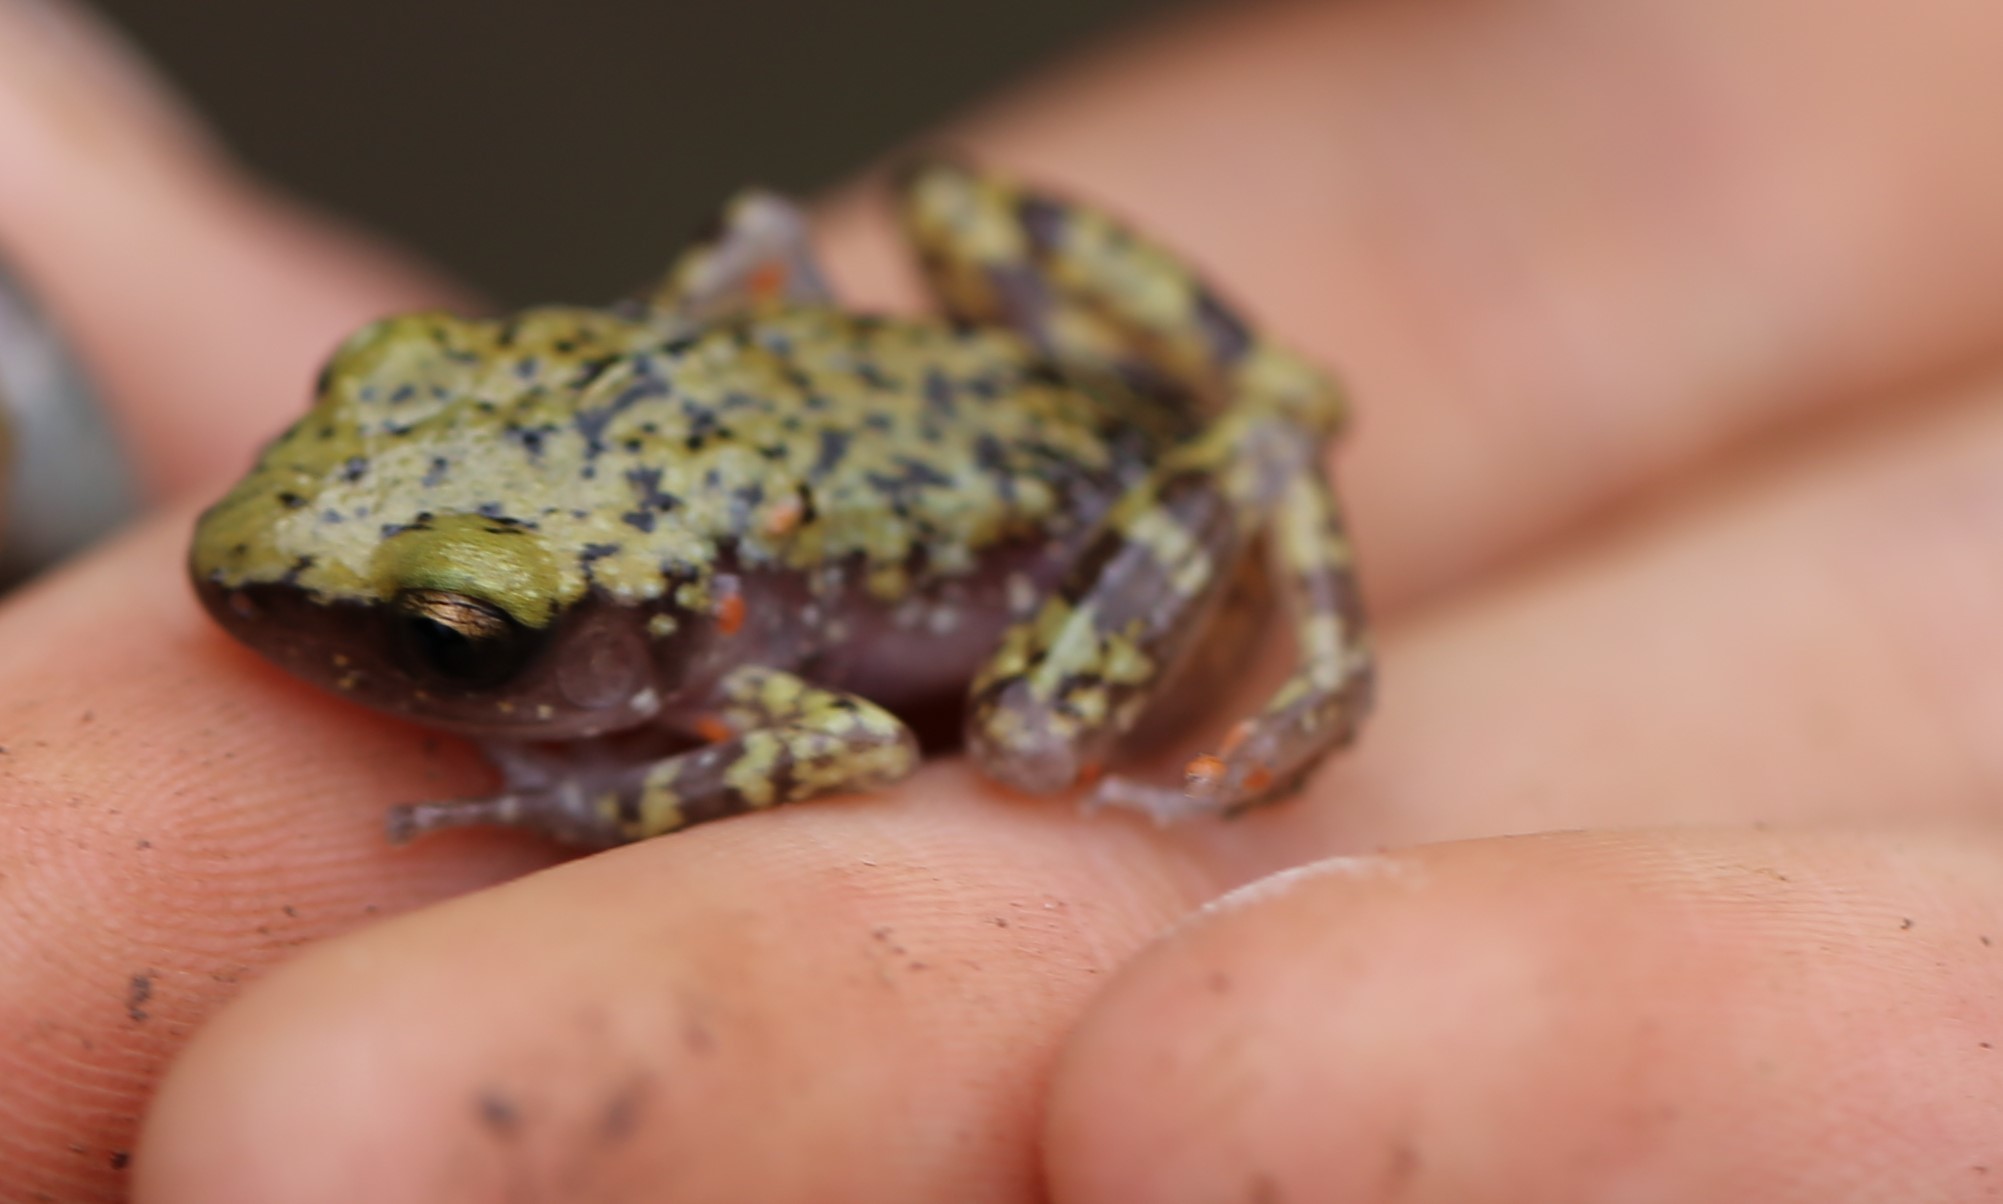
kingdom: Animalia
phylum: Chordata
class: Amphibia
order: Anura
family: Eleutherodactylidae
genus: Eleutherodactylus
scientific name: Eleutherodactylus marnockii
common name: Cliff chirping frog
